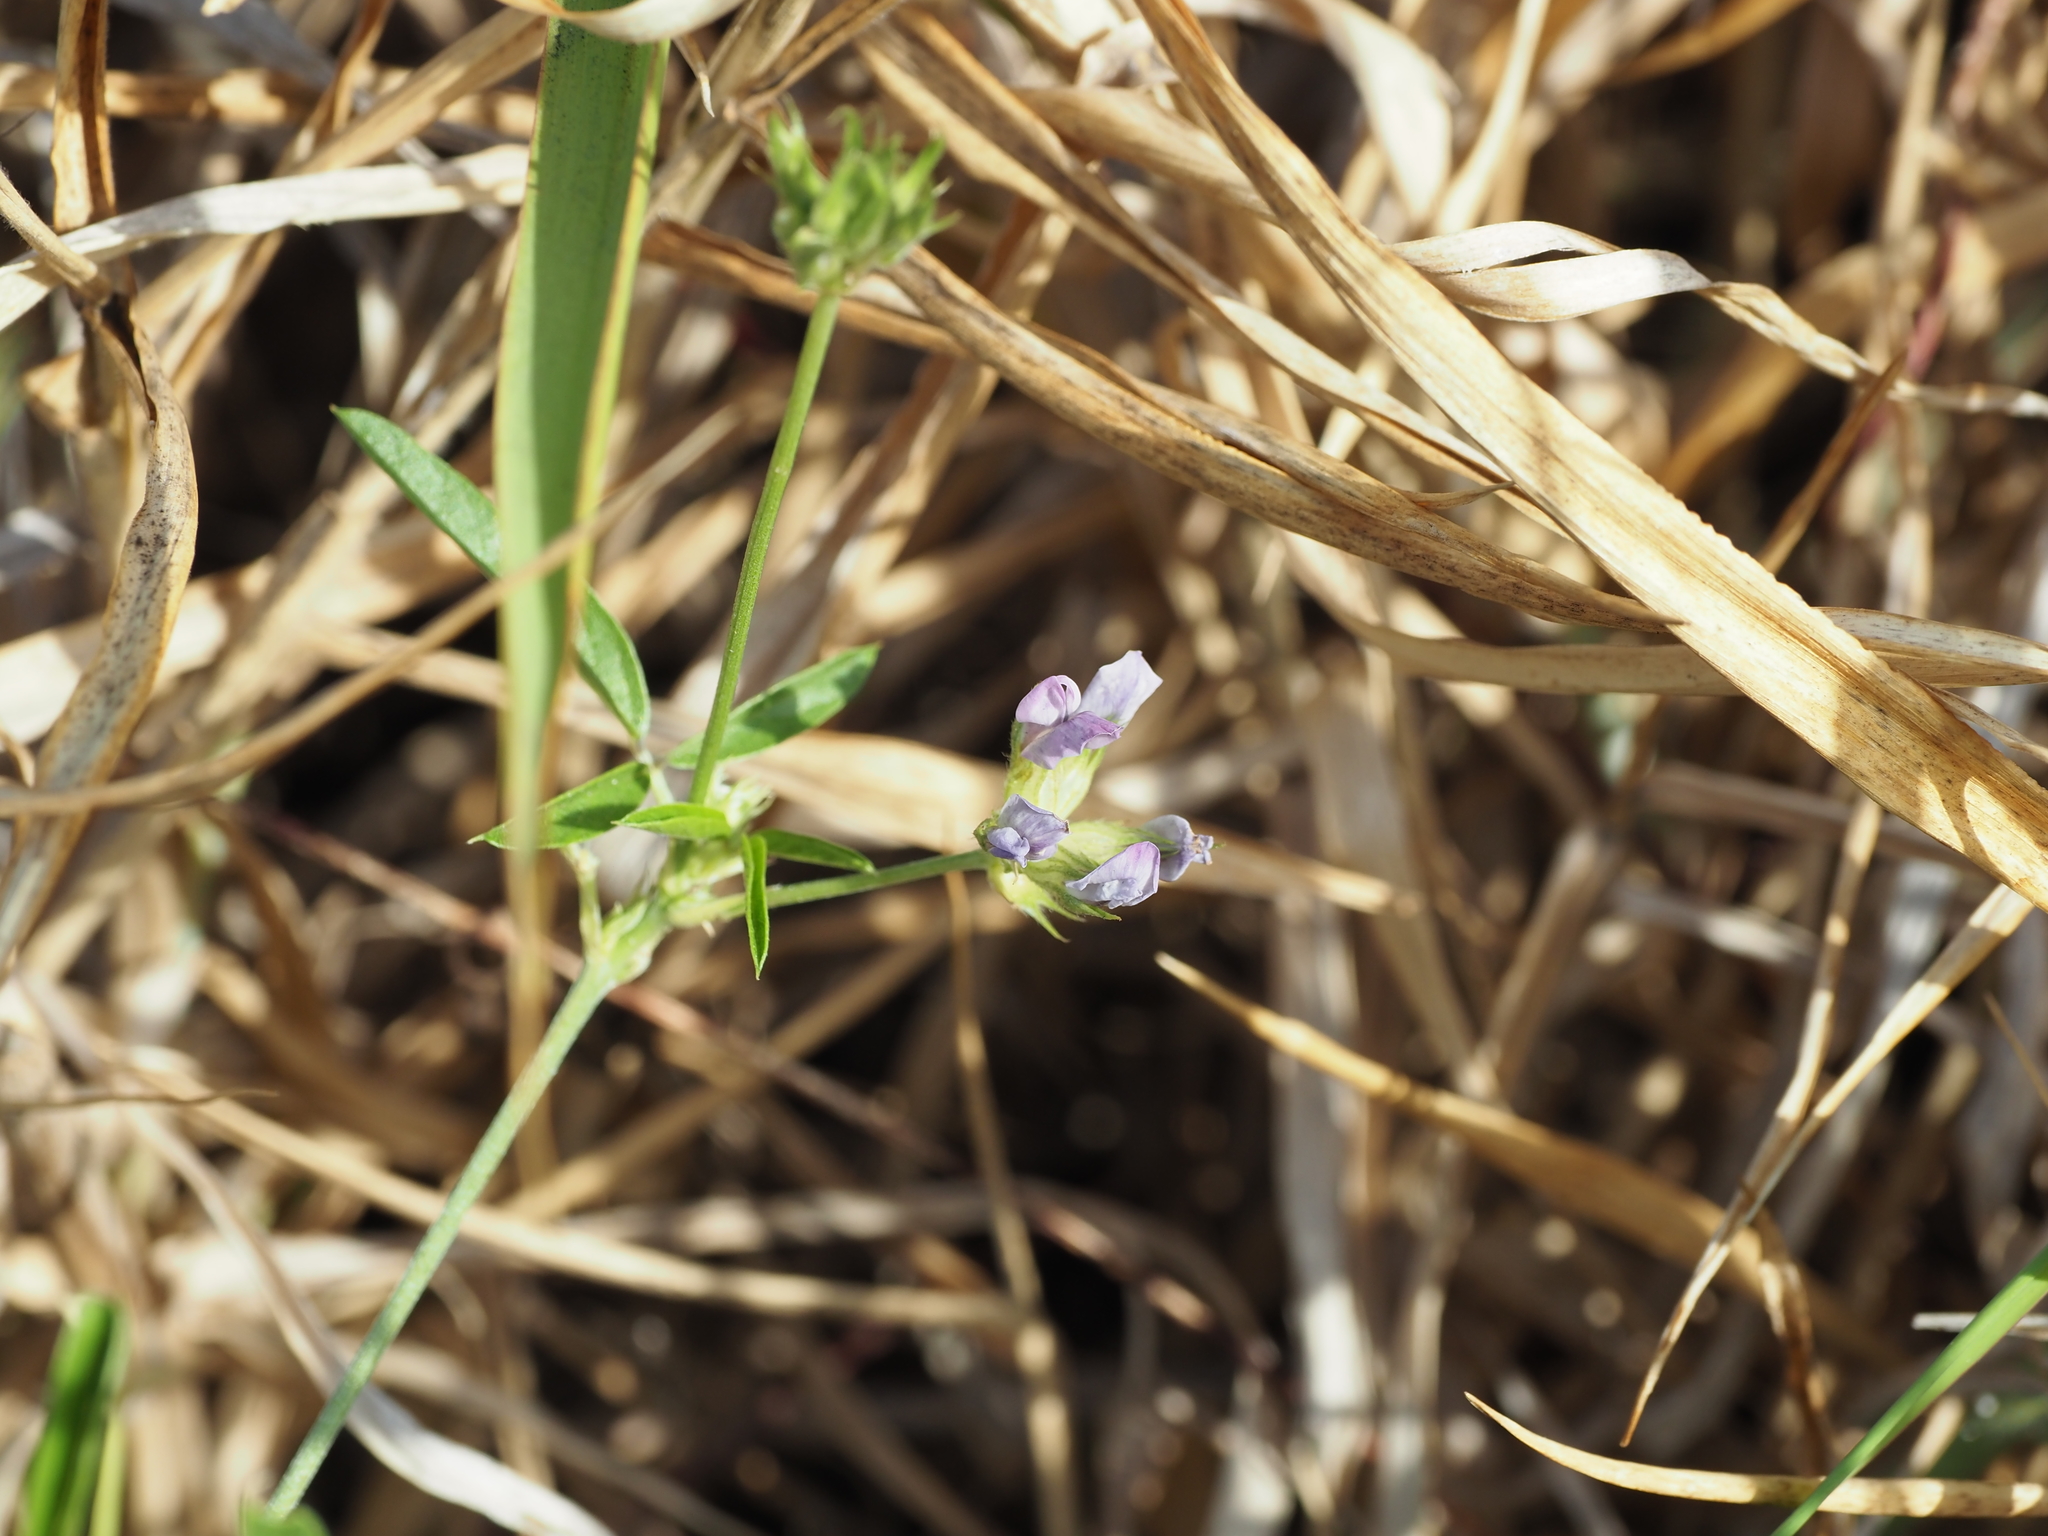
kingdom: Plantae
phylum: Tracheophyta
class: Magnoliopsida
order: Fabales
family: Fabaceae
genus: Bituminaria
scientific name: Bituminaria bituminosa
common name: Arabian pea
